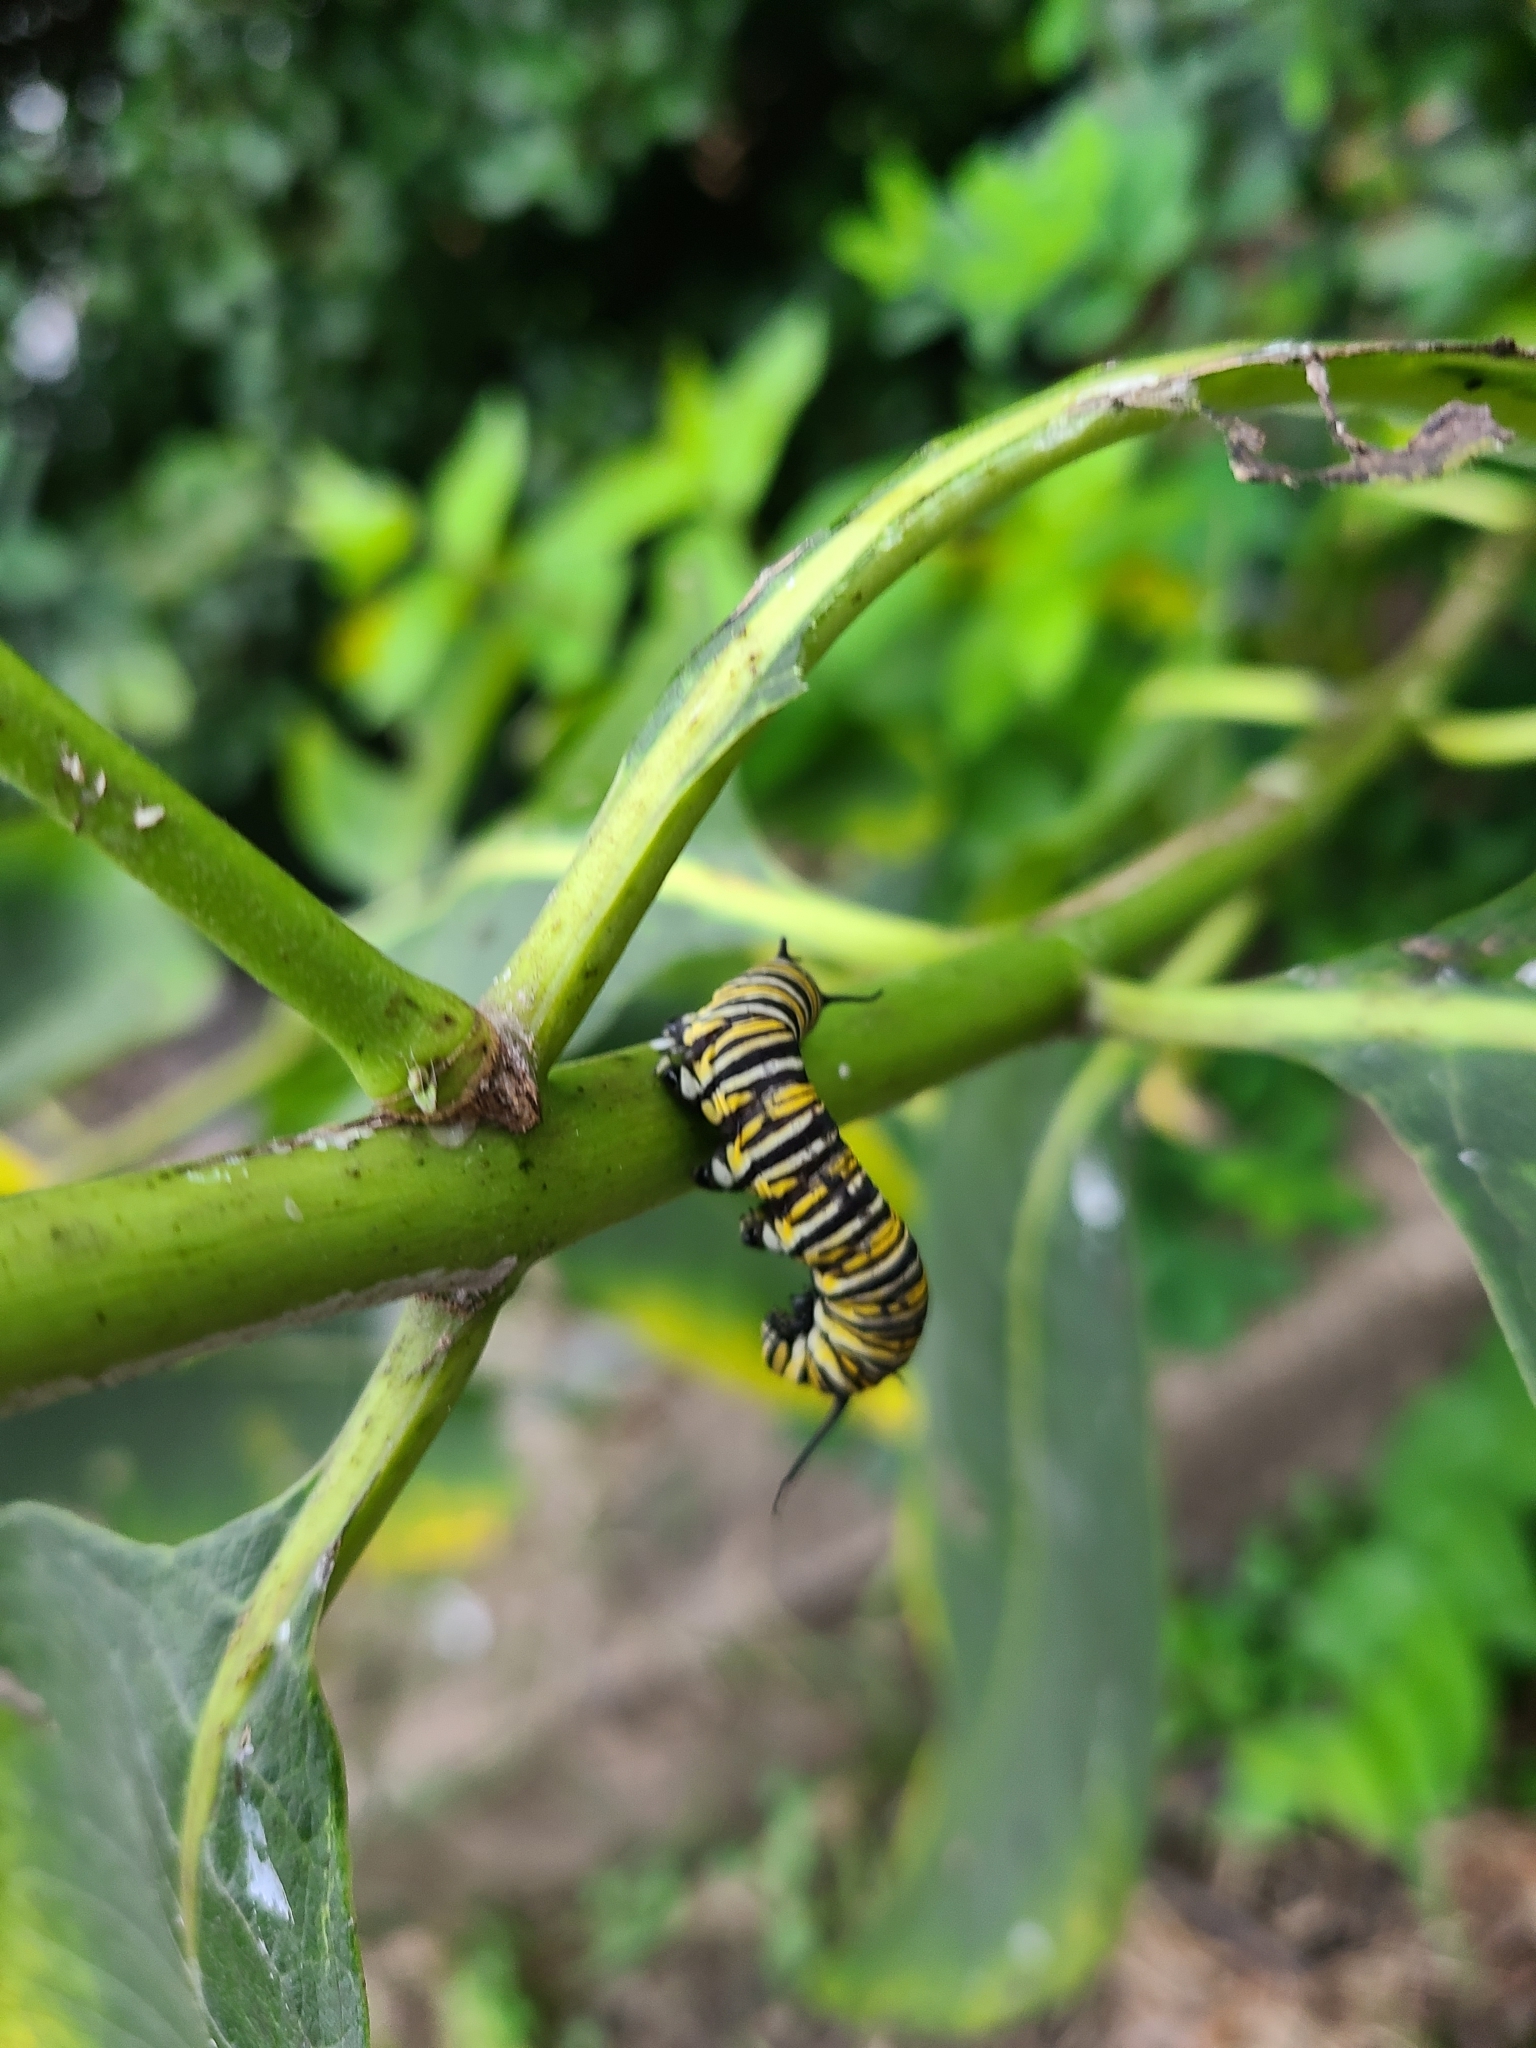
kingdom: Animalia
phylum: Arthropoda
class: Insecta
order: Lepidoptera
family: Nymphalidae
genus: Danaus
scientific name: Danaus plexippus
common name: Monarch
